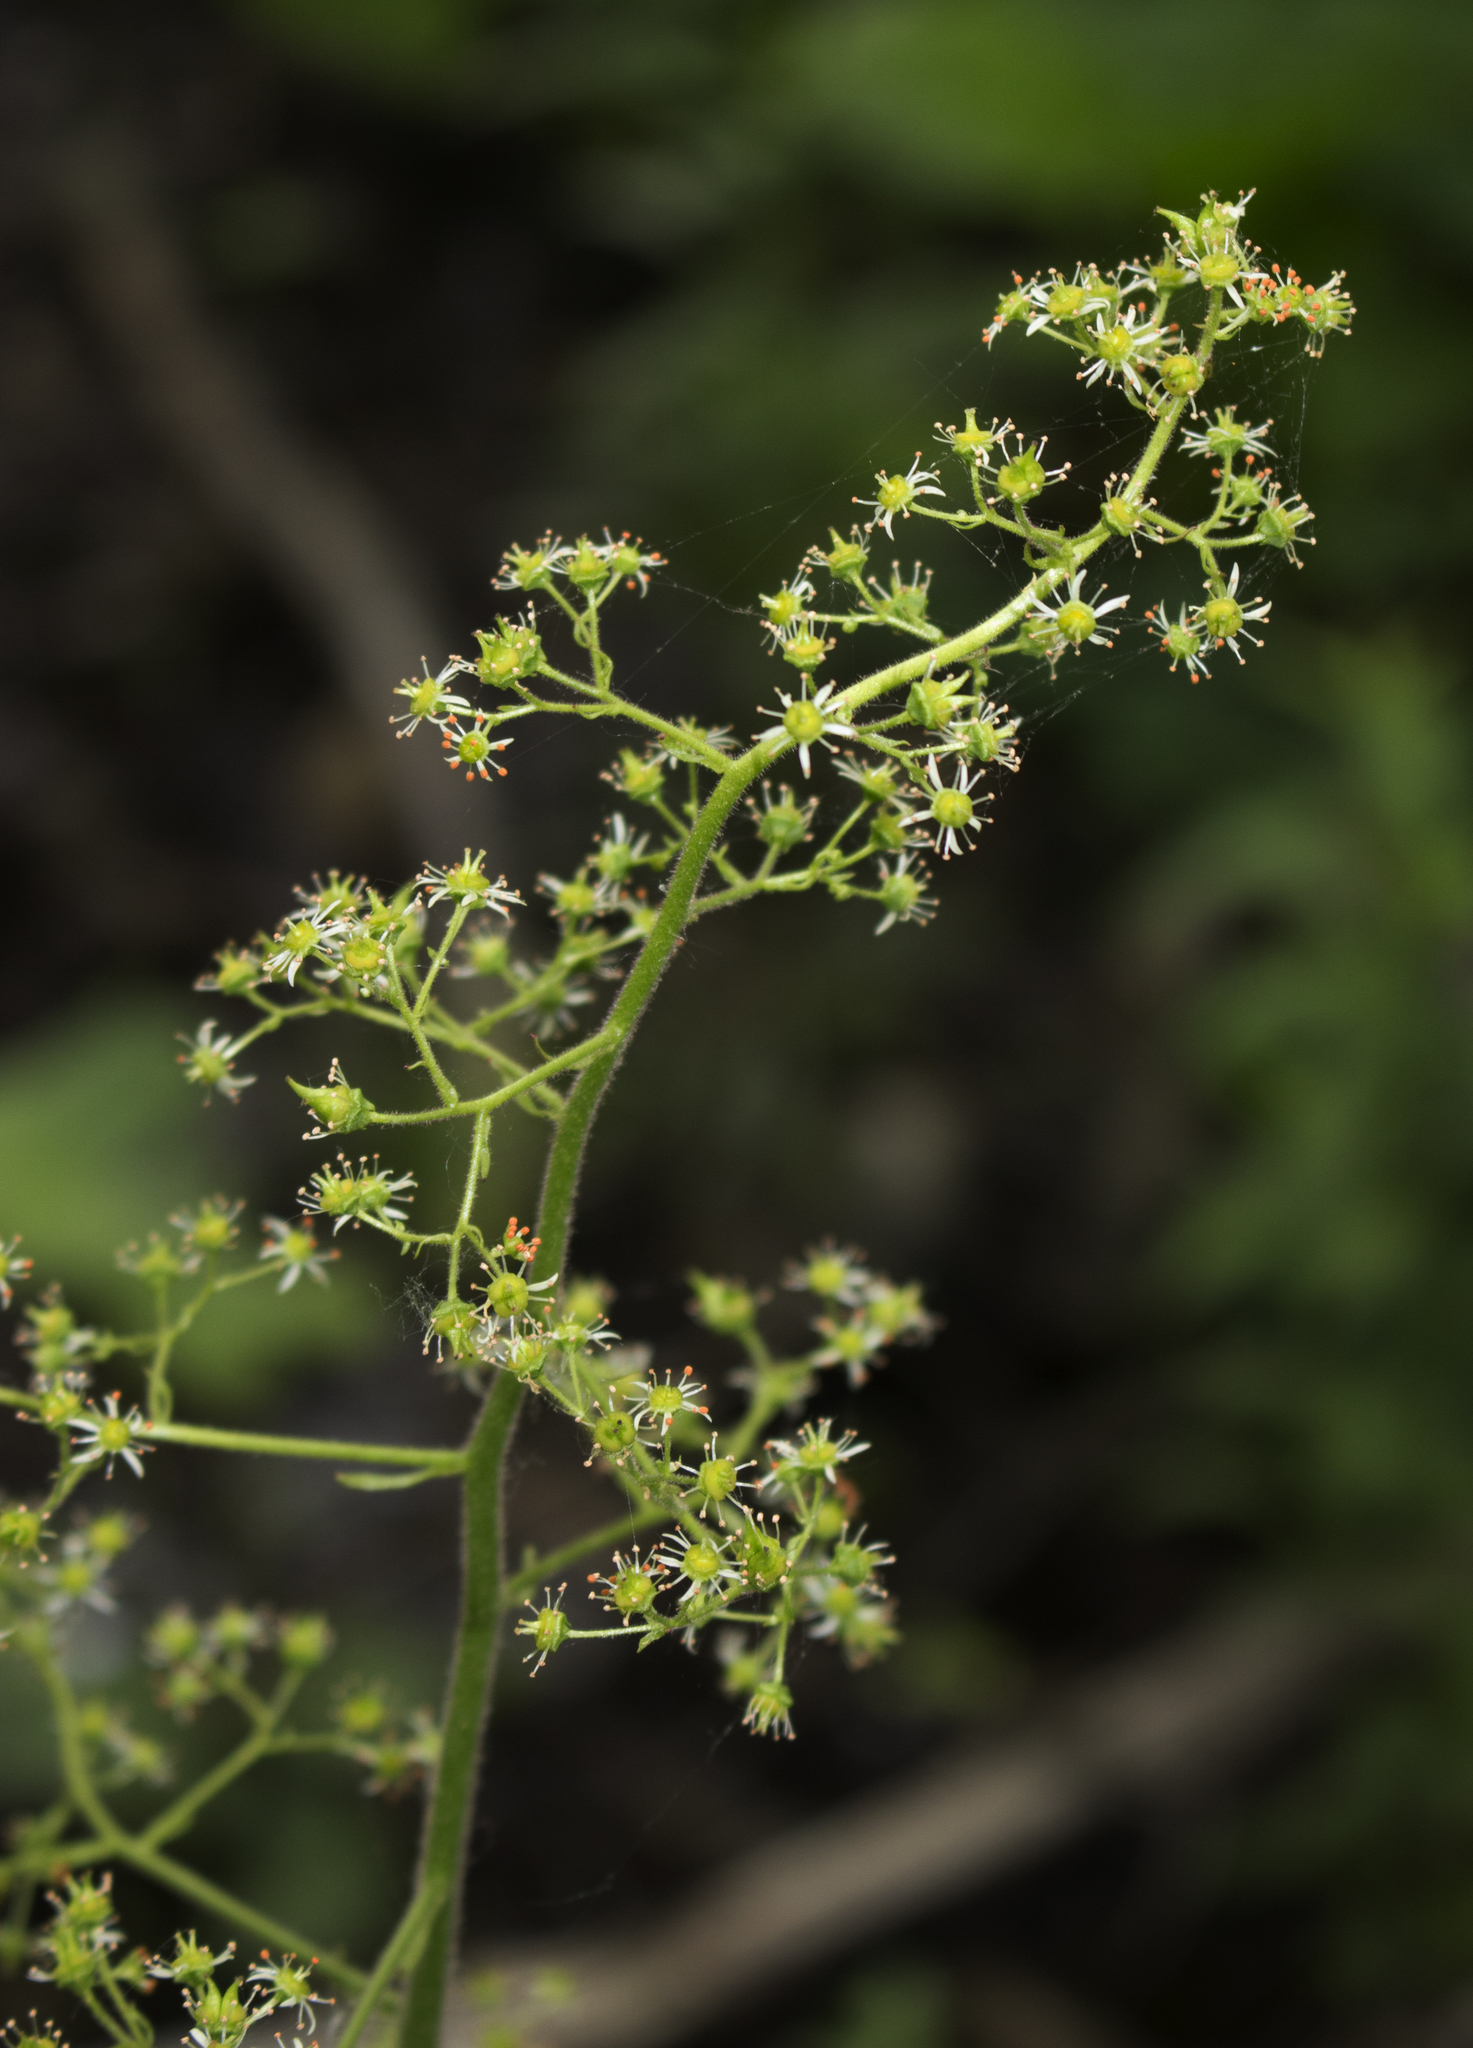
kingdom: Plantae
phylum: Tracheophyta
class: Magnoliopsida
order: Saxifragales
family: Saxifragaceae
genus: Micranthes
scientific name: Micranthes pensylvanica
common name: Marsh saxifrage
